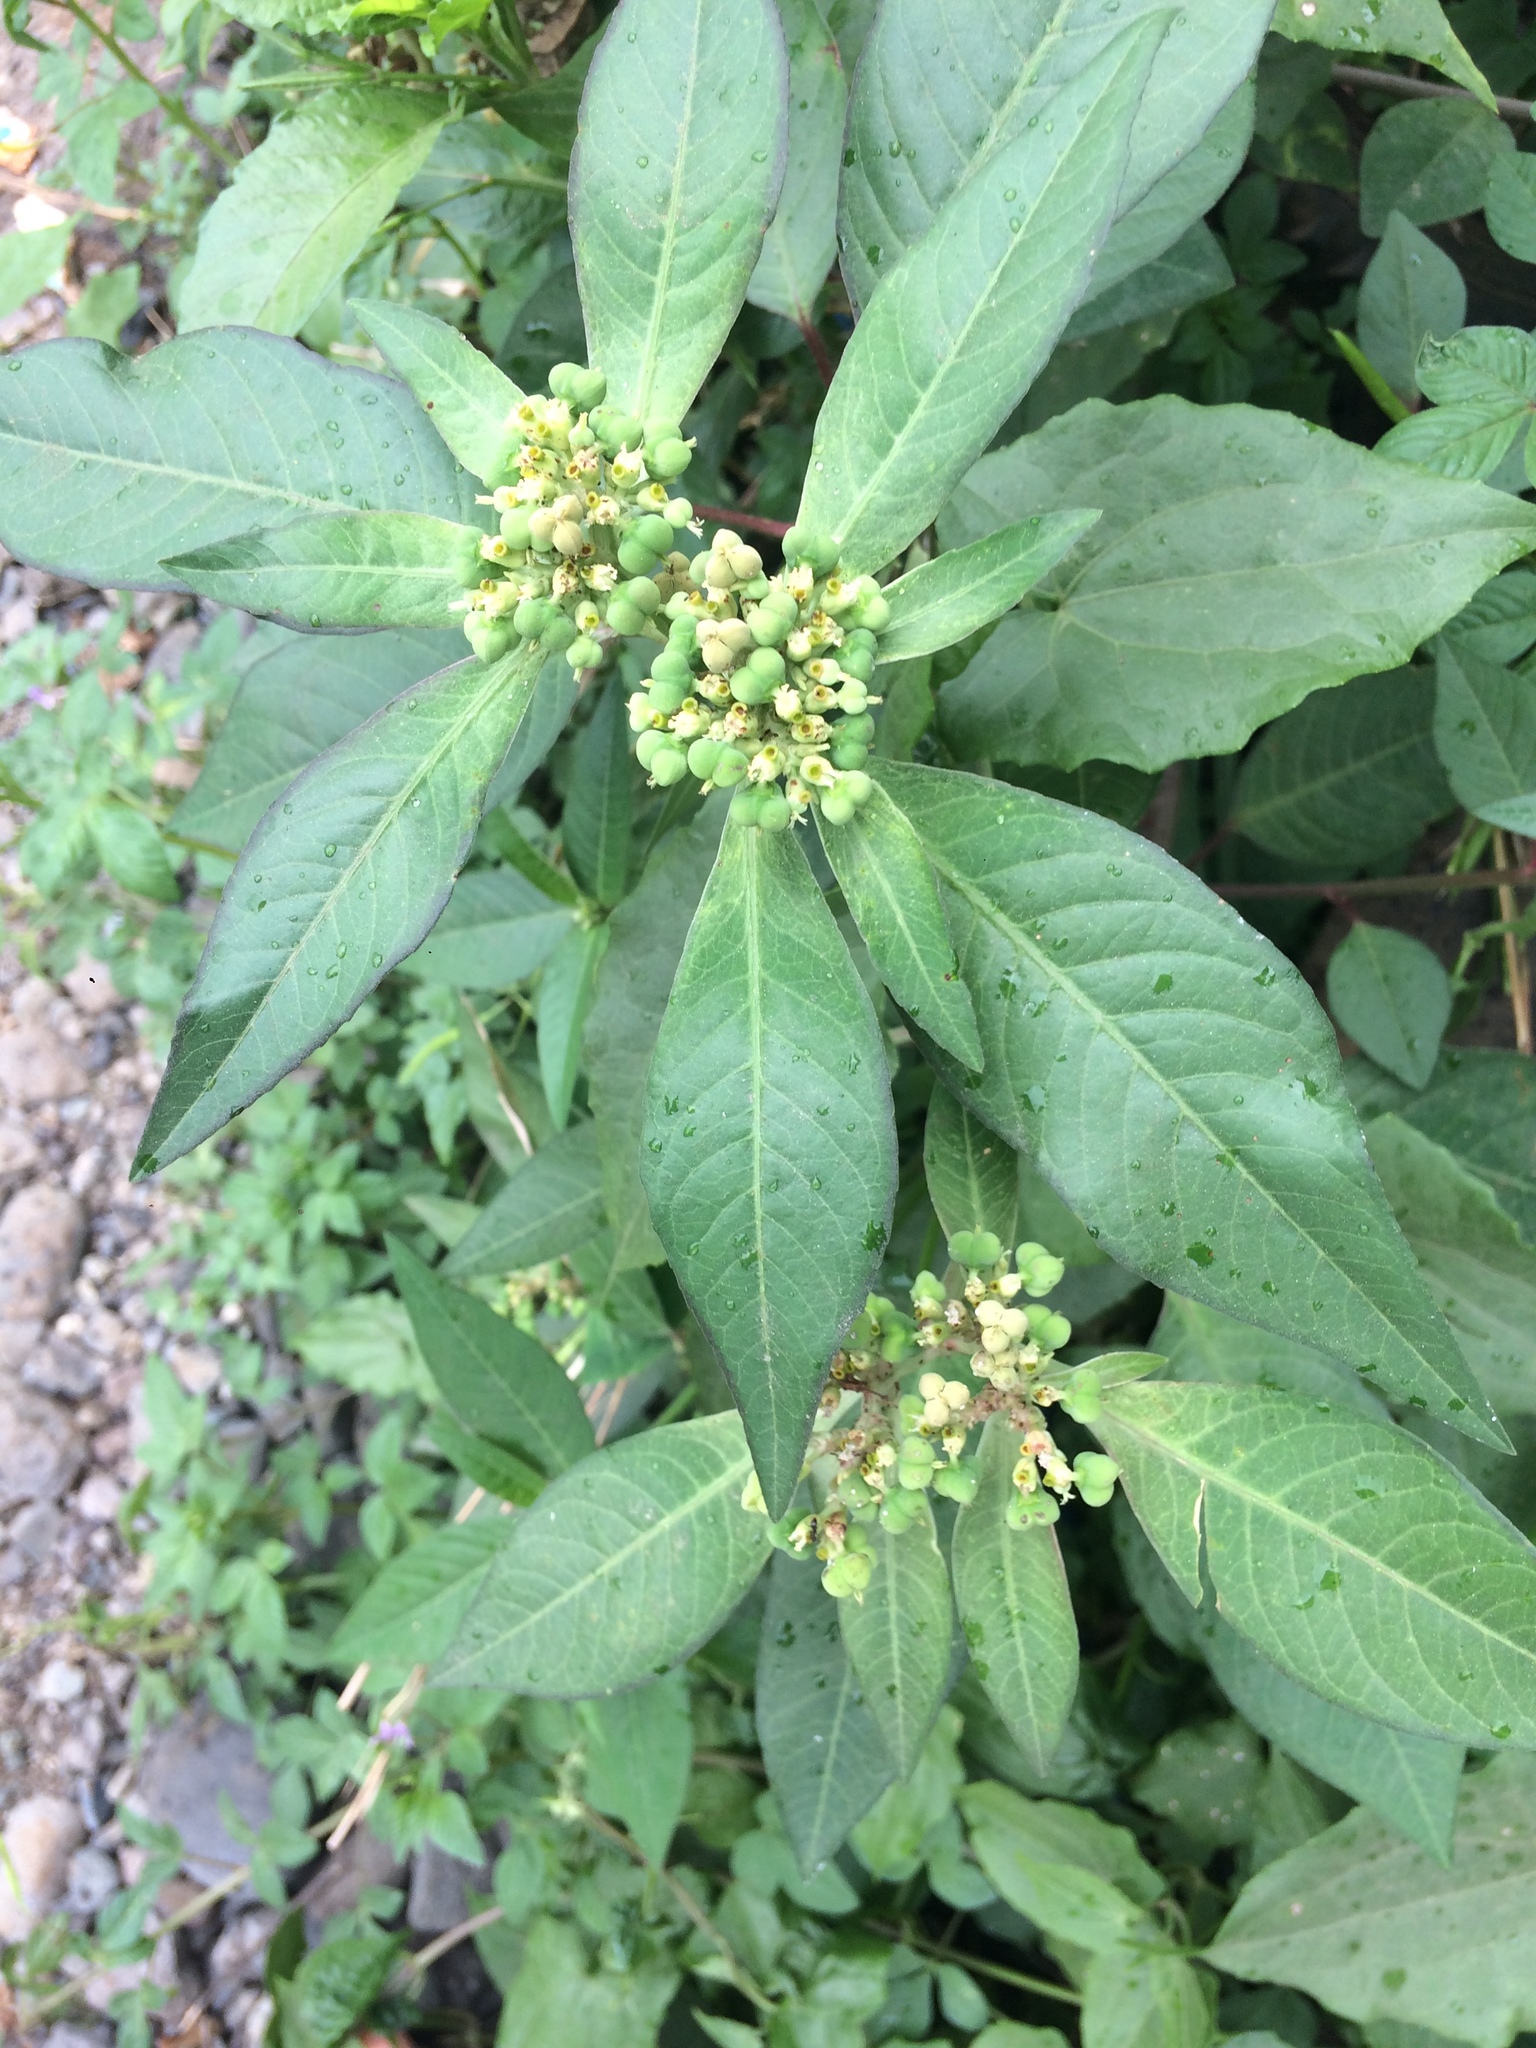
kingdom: Plantae
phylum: Tracheophyta
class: Magnoliopsida
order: Malpighiales
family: Euphorbiaceae
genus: Euphorbia
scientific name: Euphorbia heterophylla
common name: Mexican fireplant
